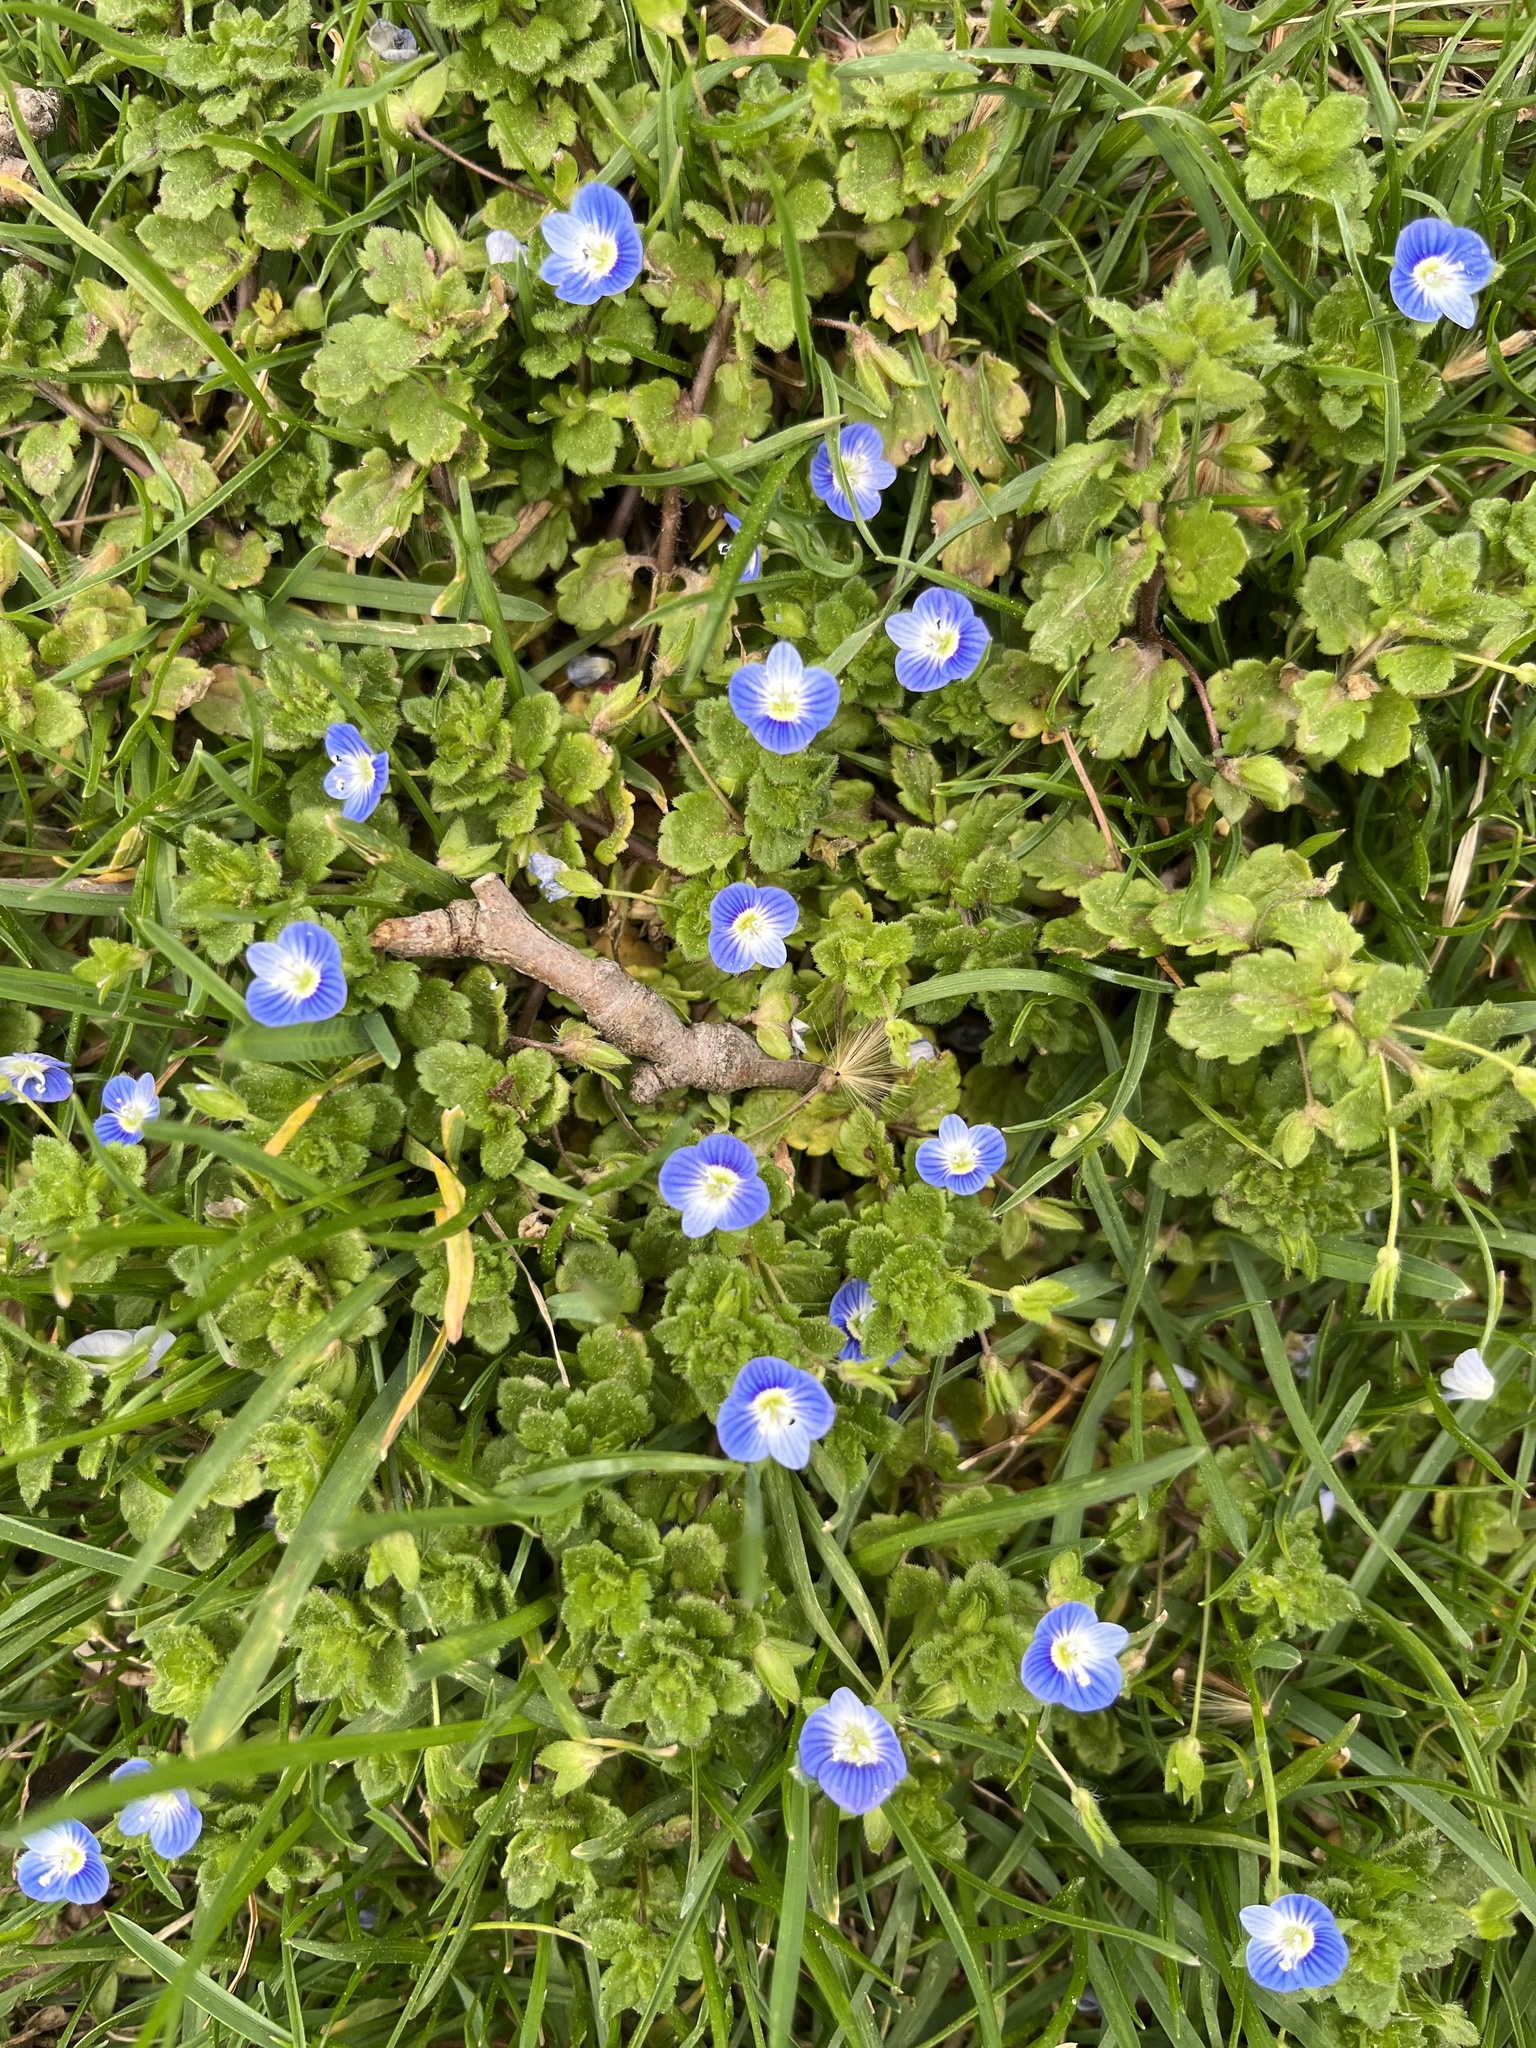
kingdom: Plantae
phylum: Tracheophyta
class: Magnoliopsida
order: Lamiales
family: Plantaginaceae
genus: Veronica
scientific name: Veronica persica
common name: Common field-speedwell
